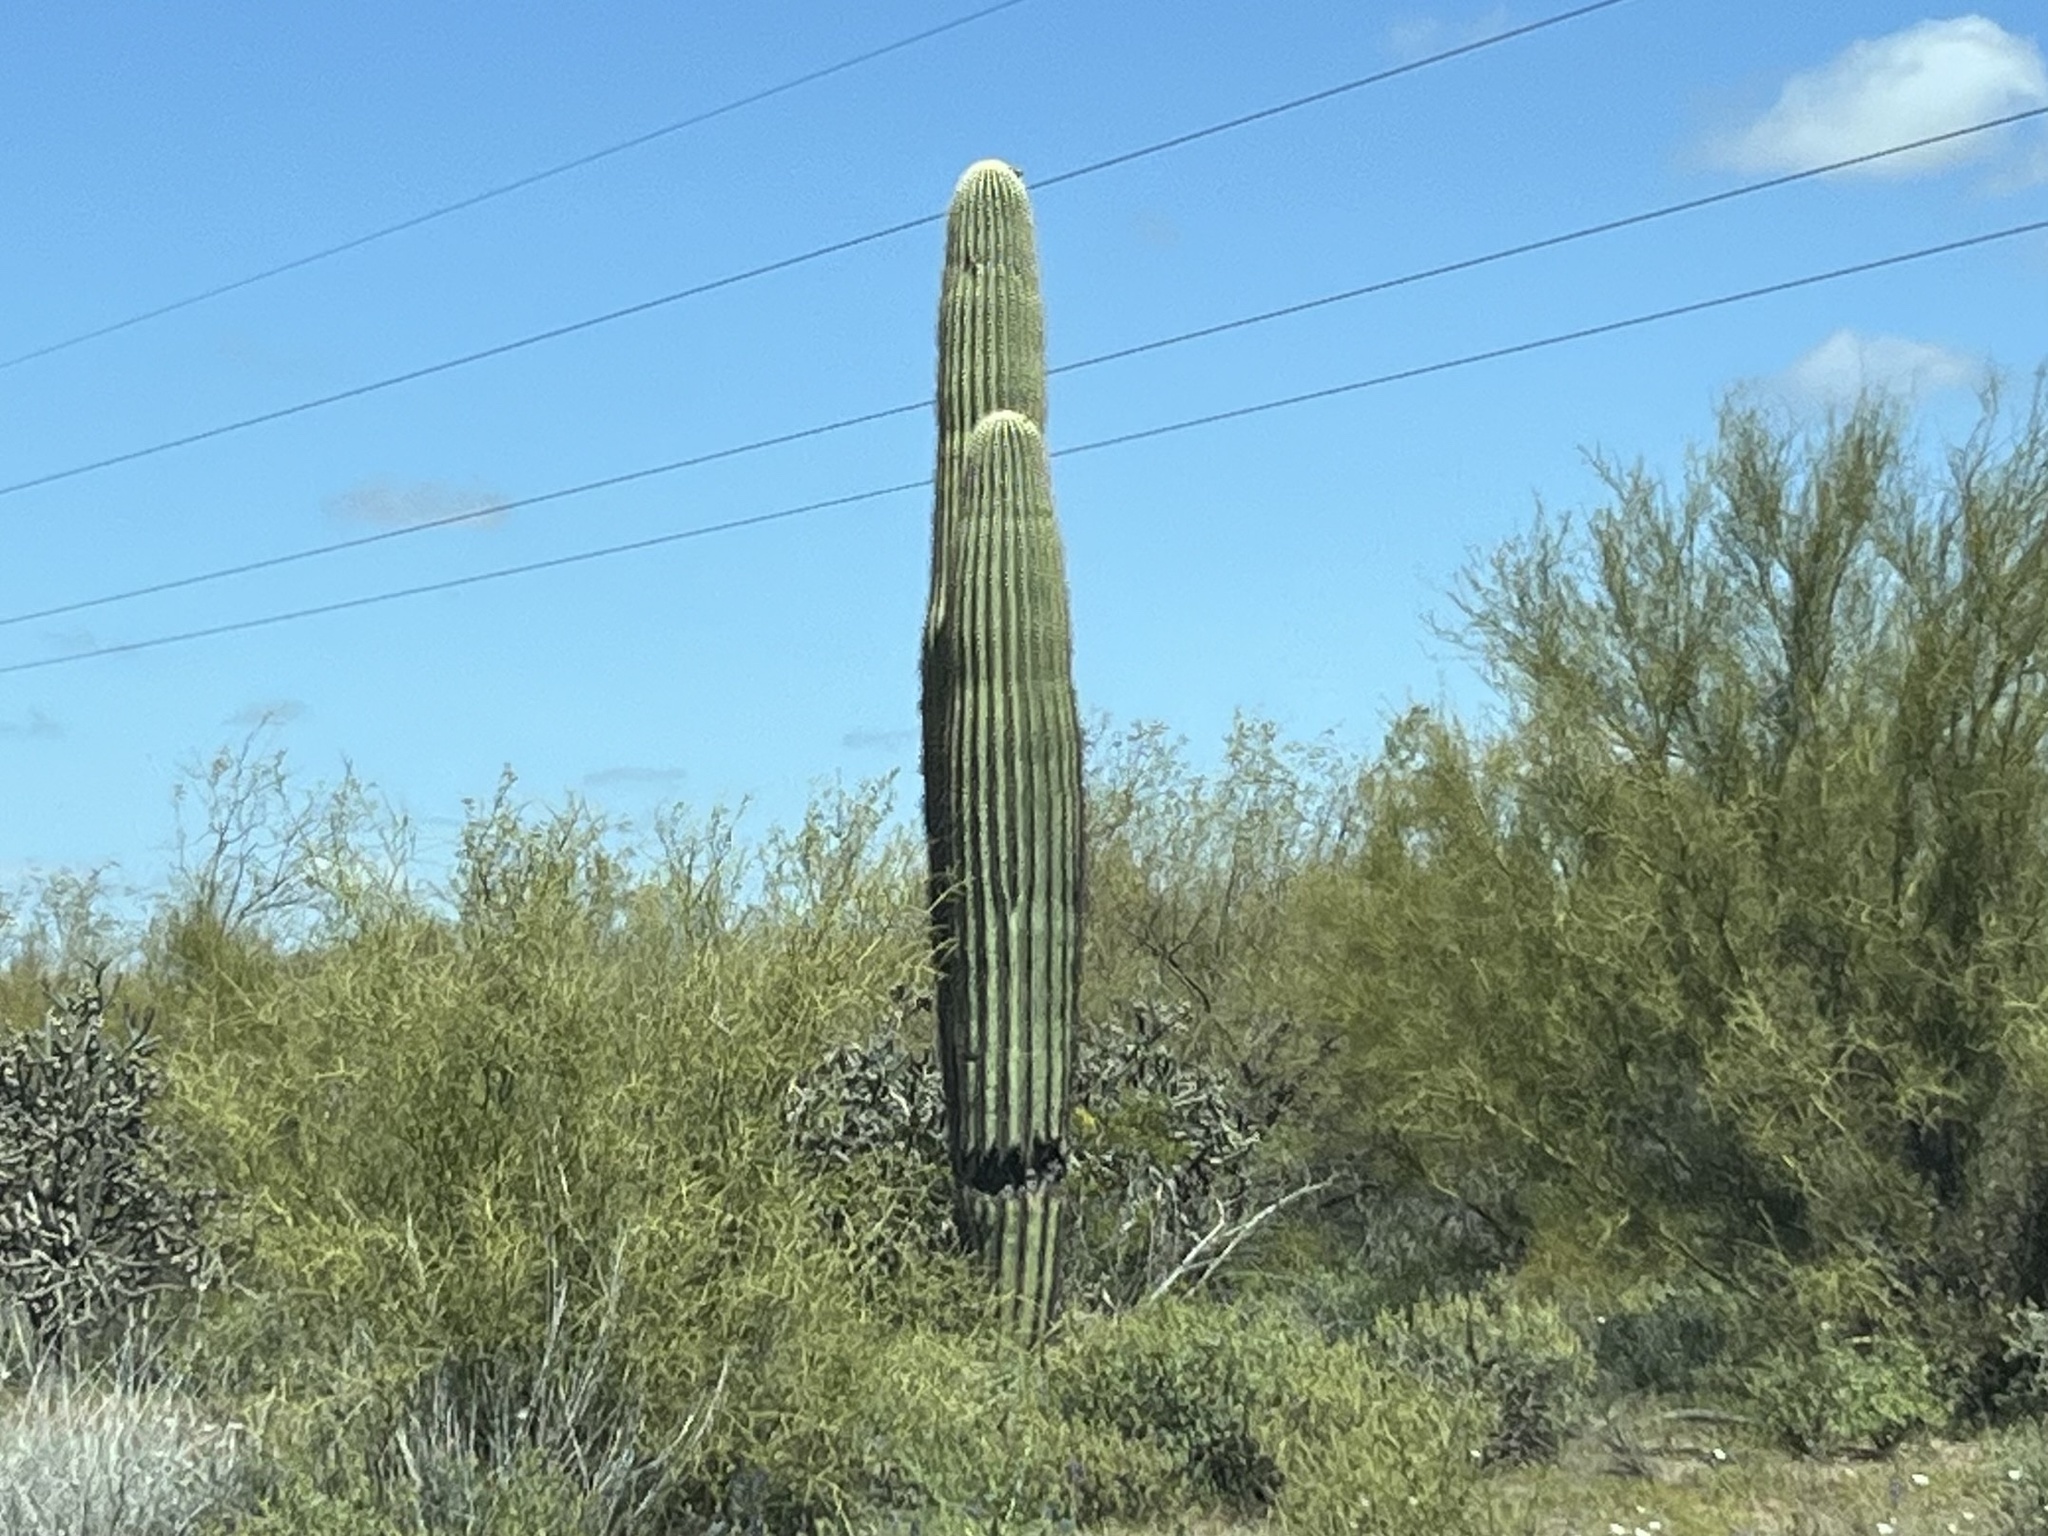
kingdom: Plantae
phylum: Tracheophyta
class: Magnoliopsida
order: Caryophyllales
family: Cactaceae
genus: Carnegiea
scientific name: Carnegiea gigantea
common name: Saguaro
